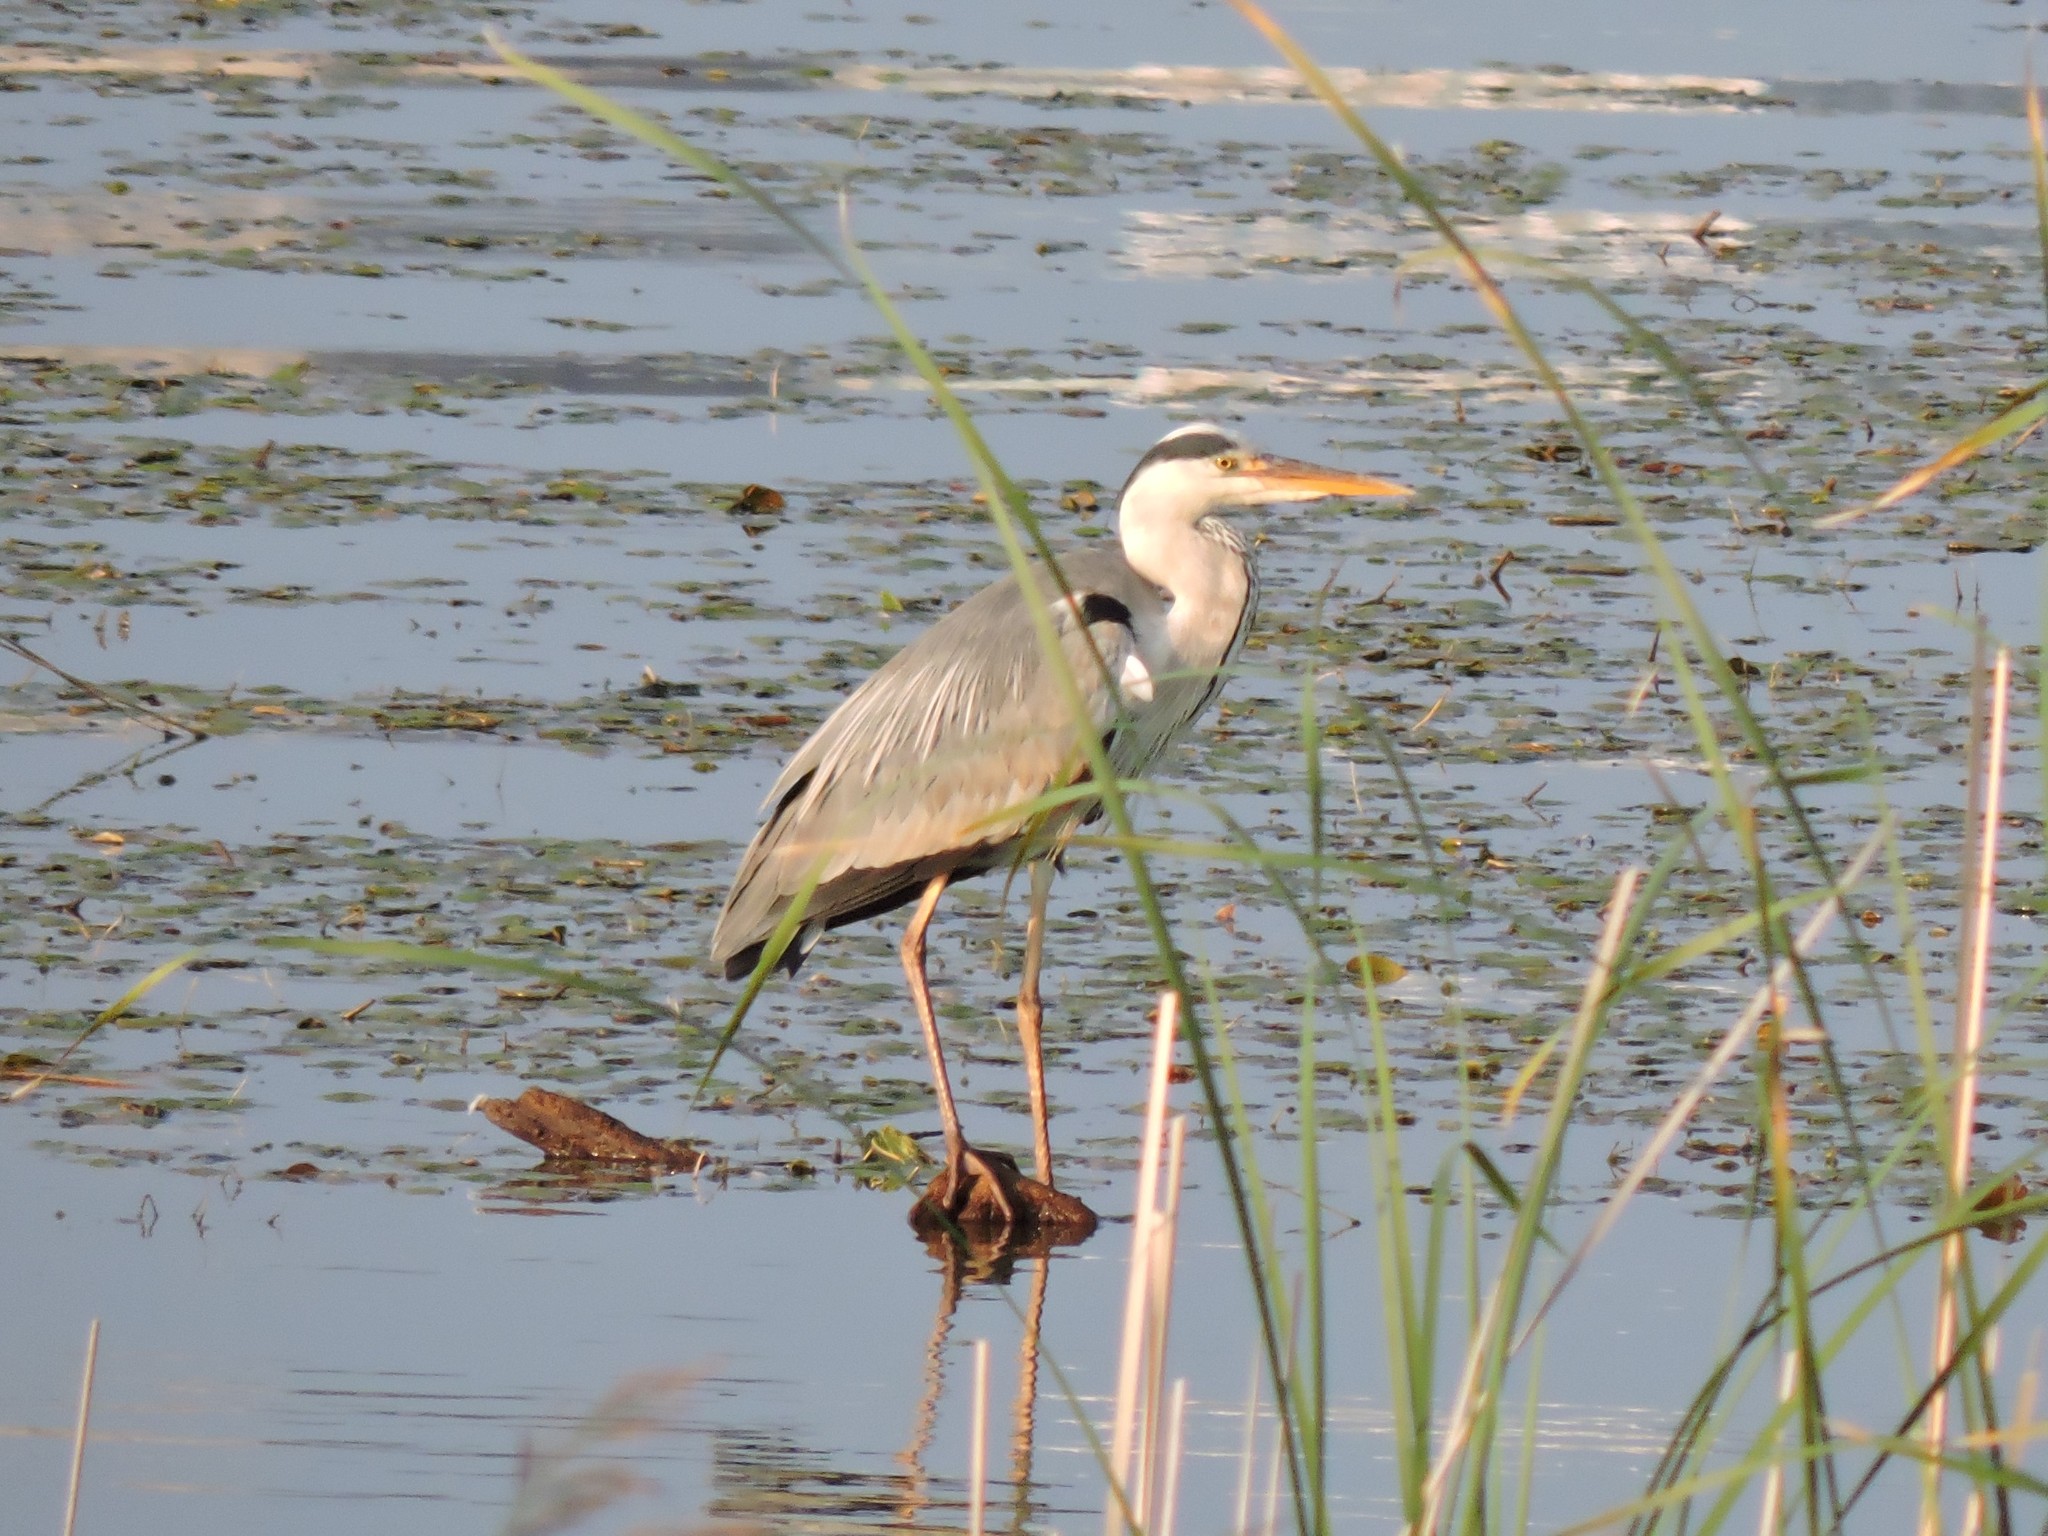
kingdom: Animalia
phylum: Chordata
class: Aves
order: Pelecaniformes
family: Ardeidae
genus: Ardea
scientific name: Ardea cinerea
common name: Grey heron
